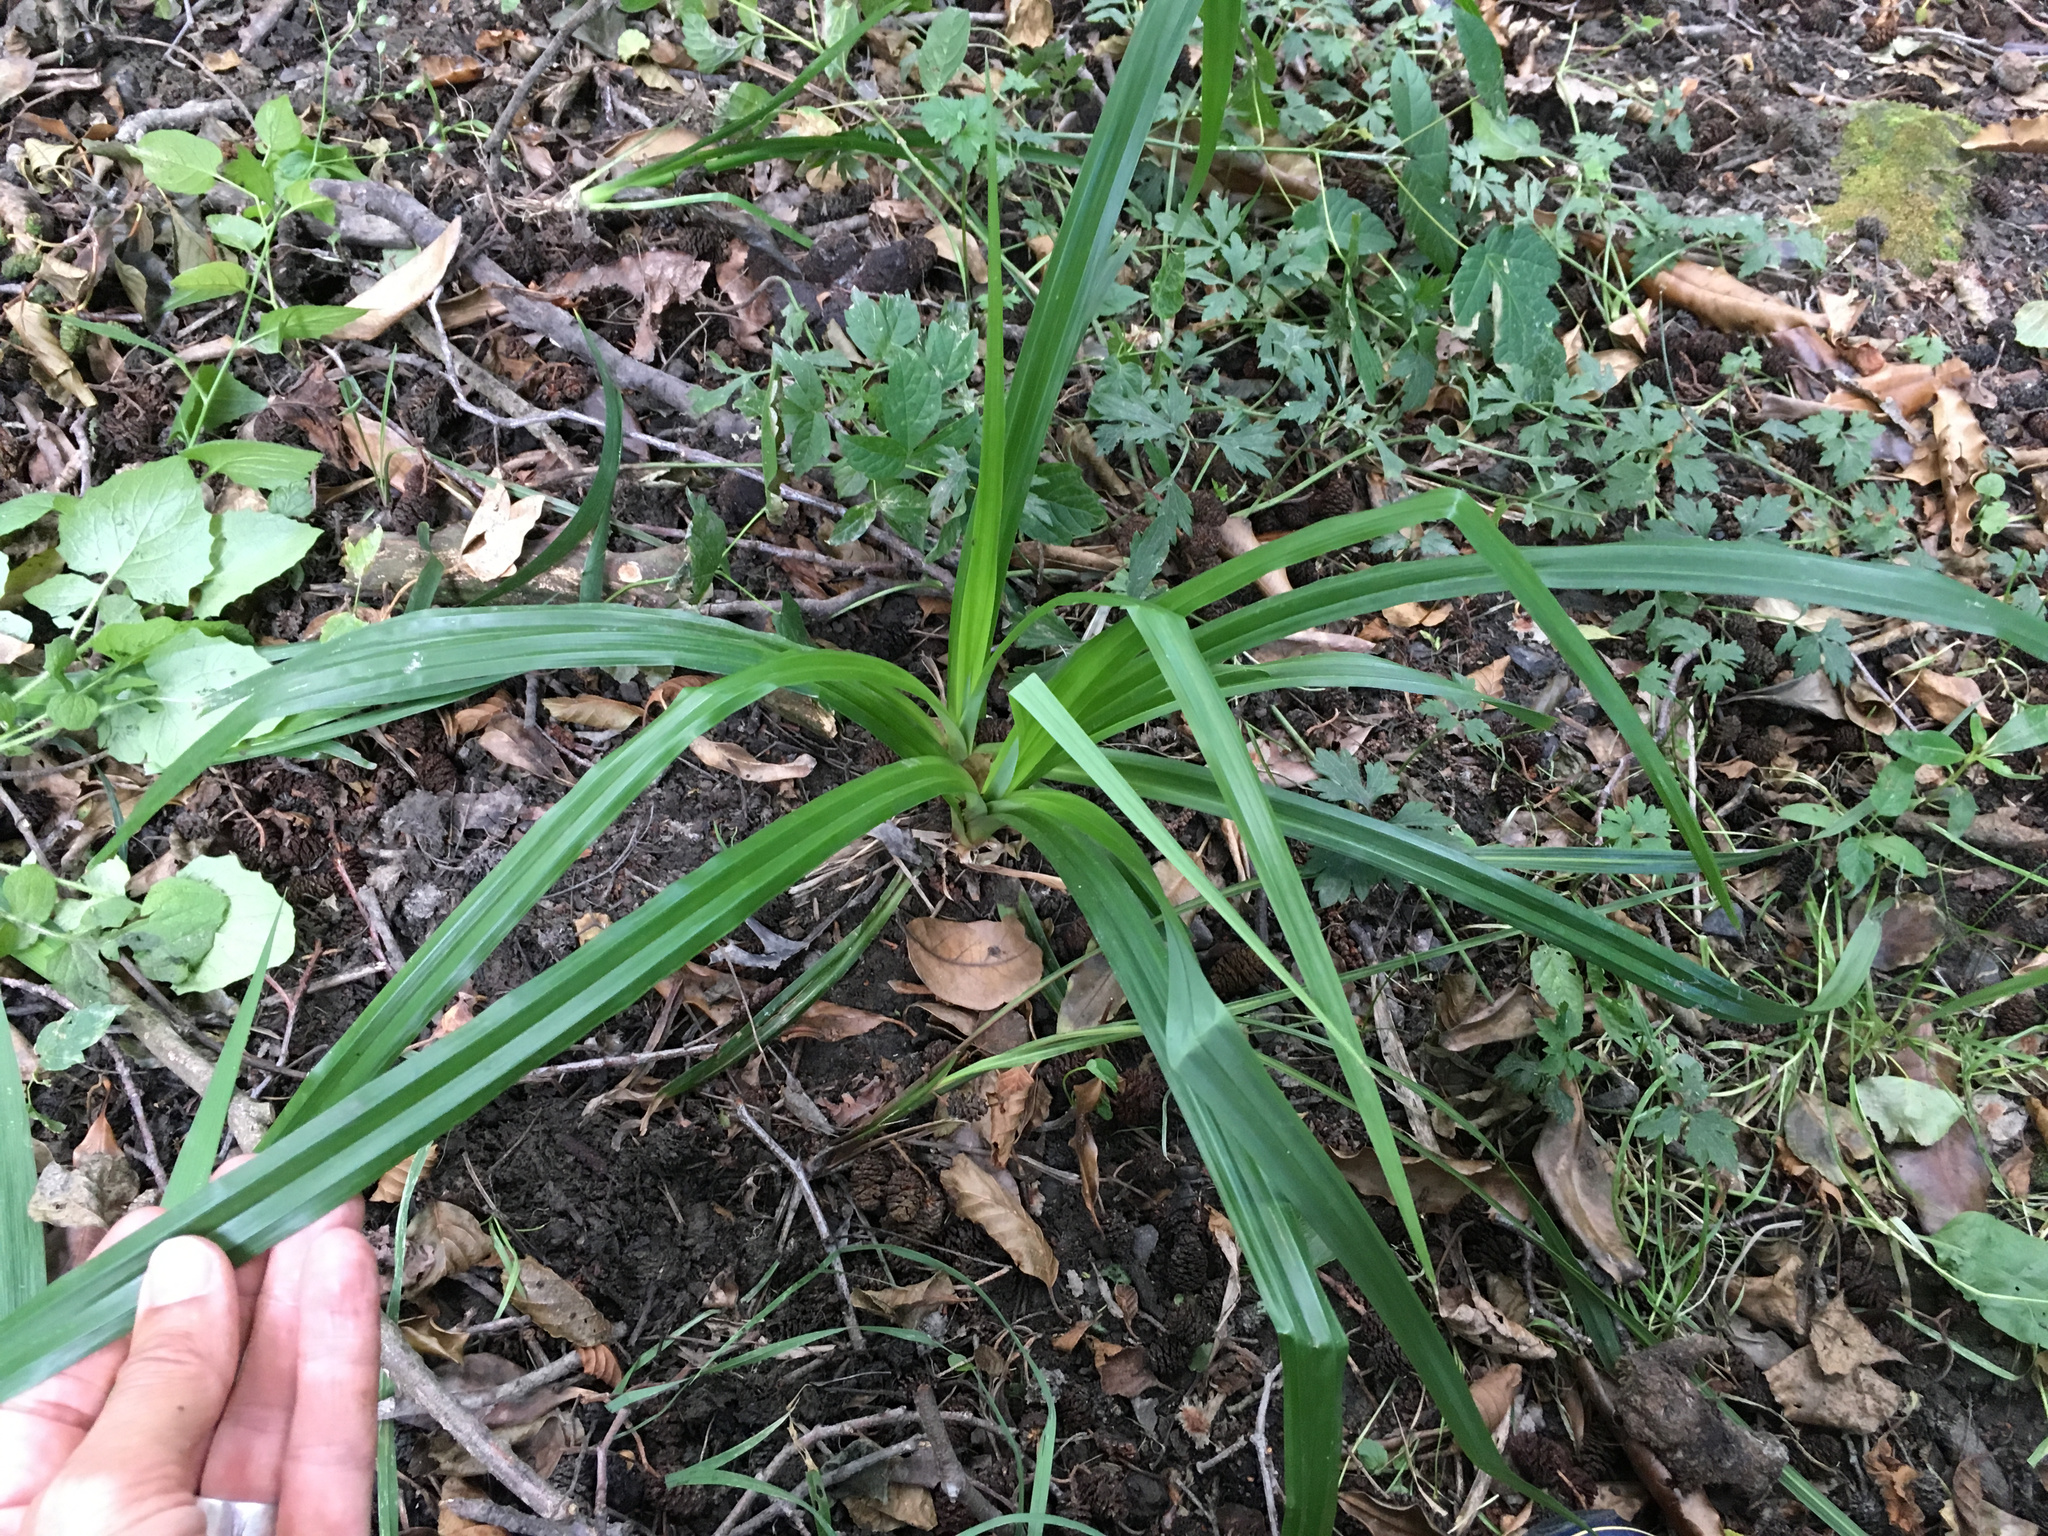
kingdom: Plantae
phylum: Tracheophyta
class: Liliopsida
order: Poales
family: Cyperaceae
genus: Carex
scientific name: Carex pendula
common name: Pendulous sedge
